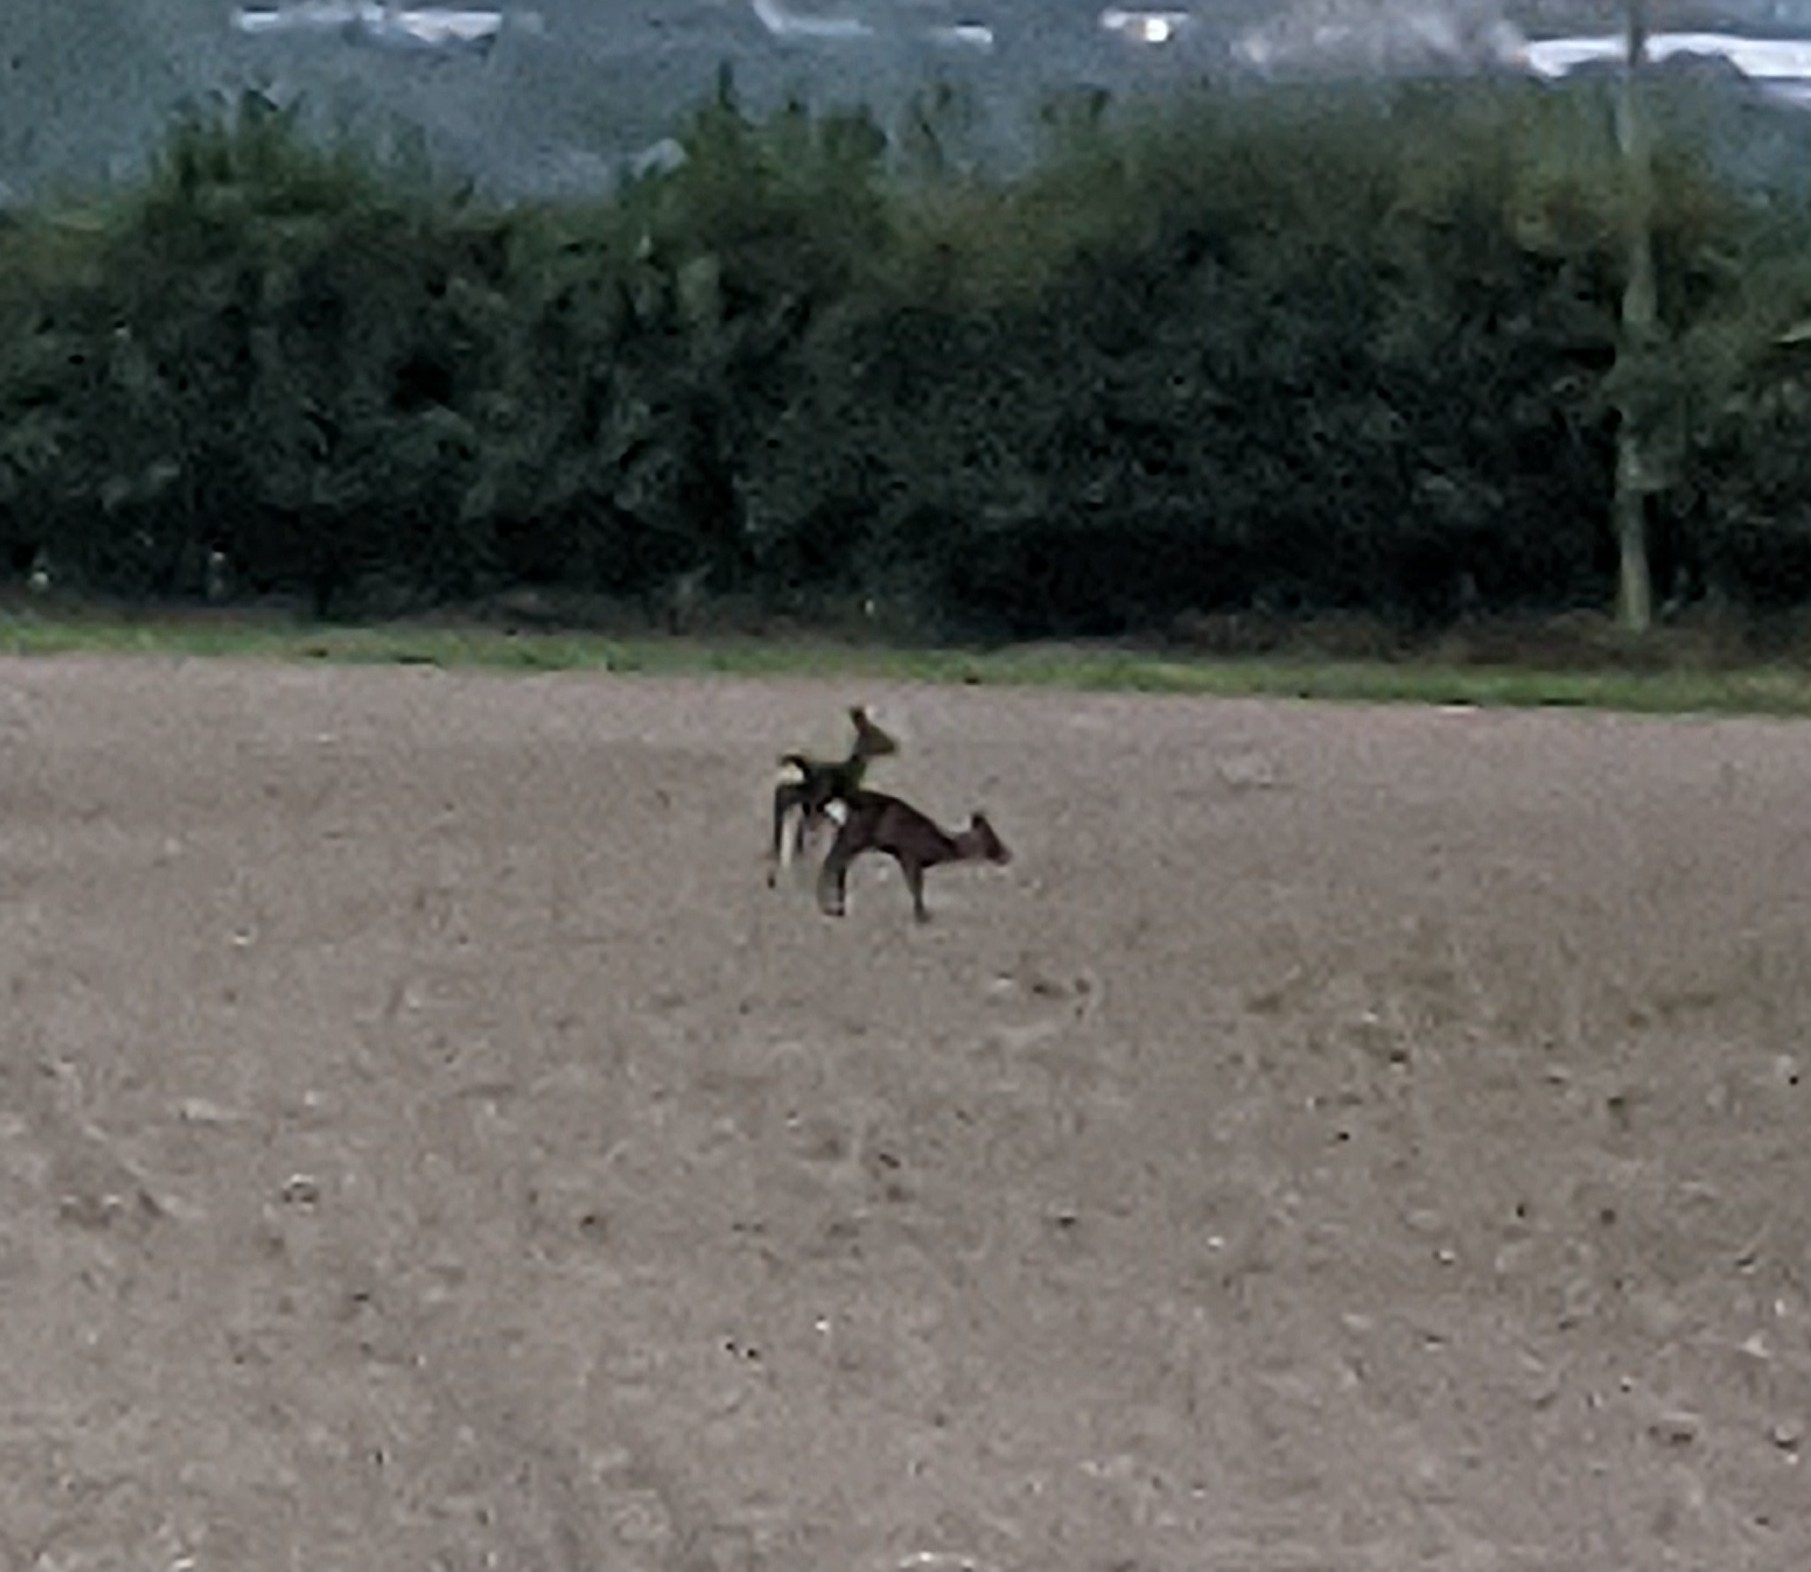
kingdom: Animalia
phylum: Chordata
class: Mammalia
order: Artiodactyla
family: Cervidae
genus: Capreolus
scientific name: Capreolus capreolus
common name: Western roe deer
